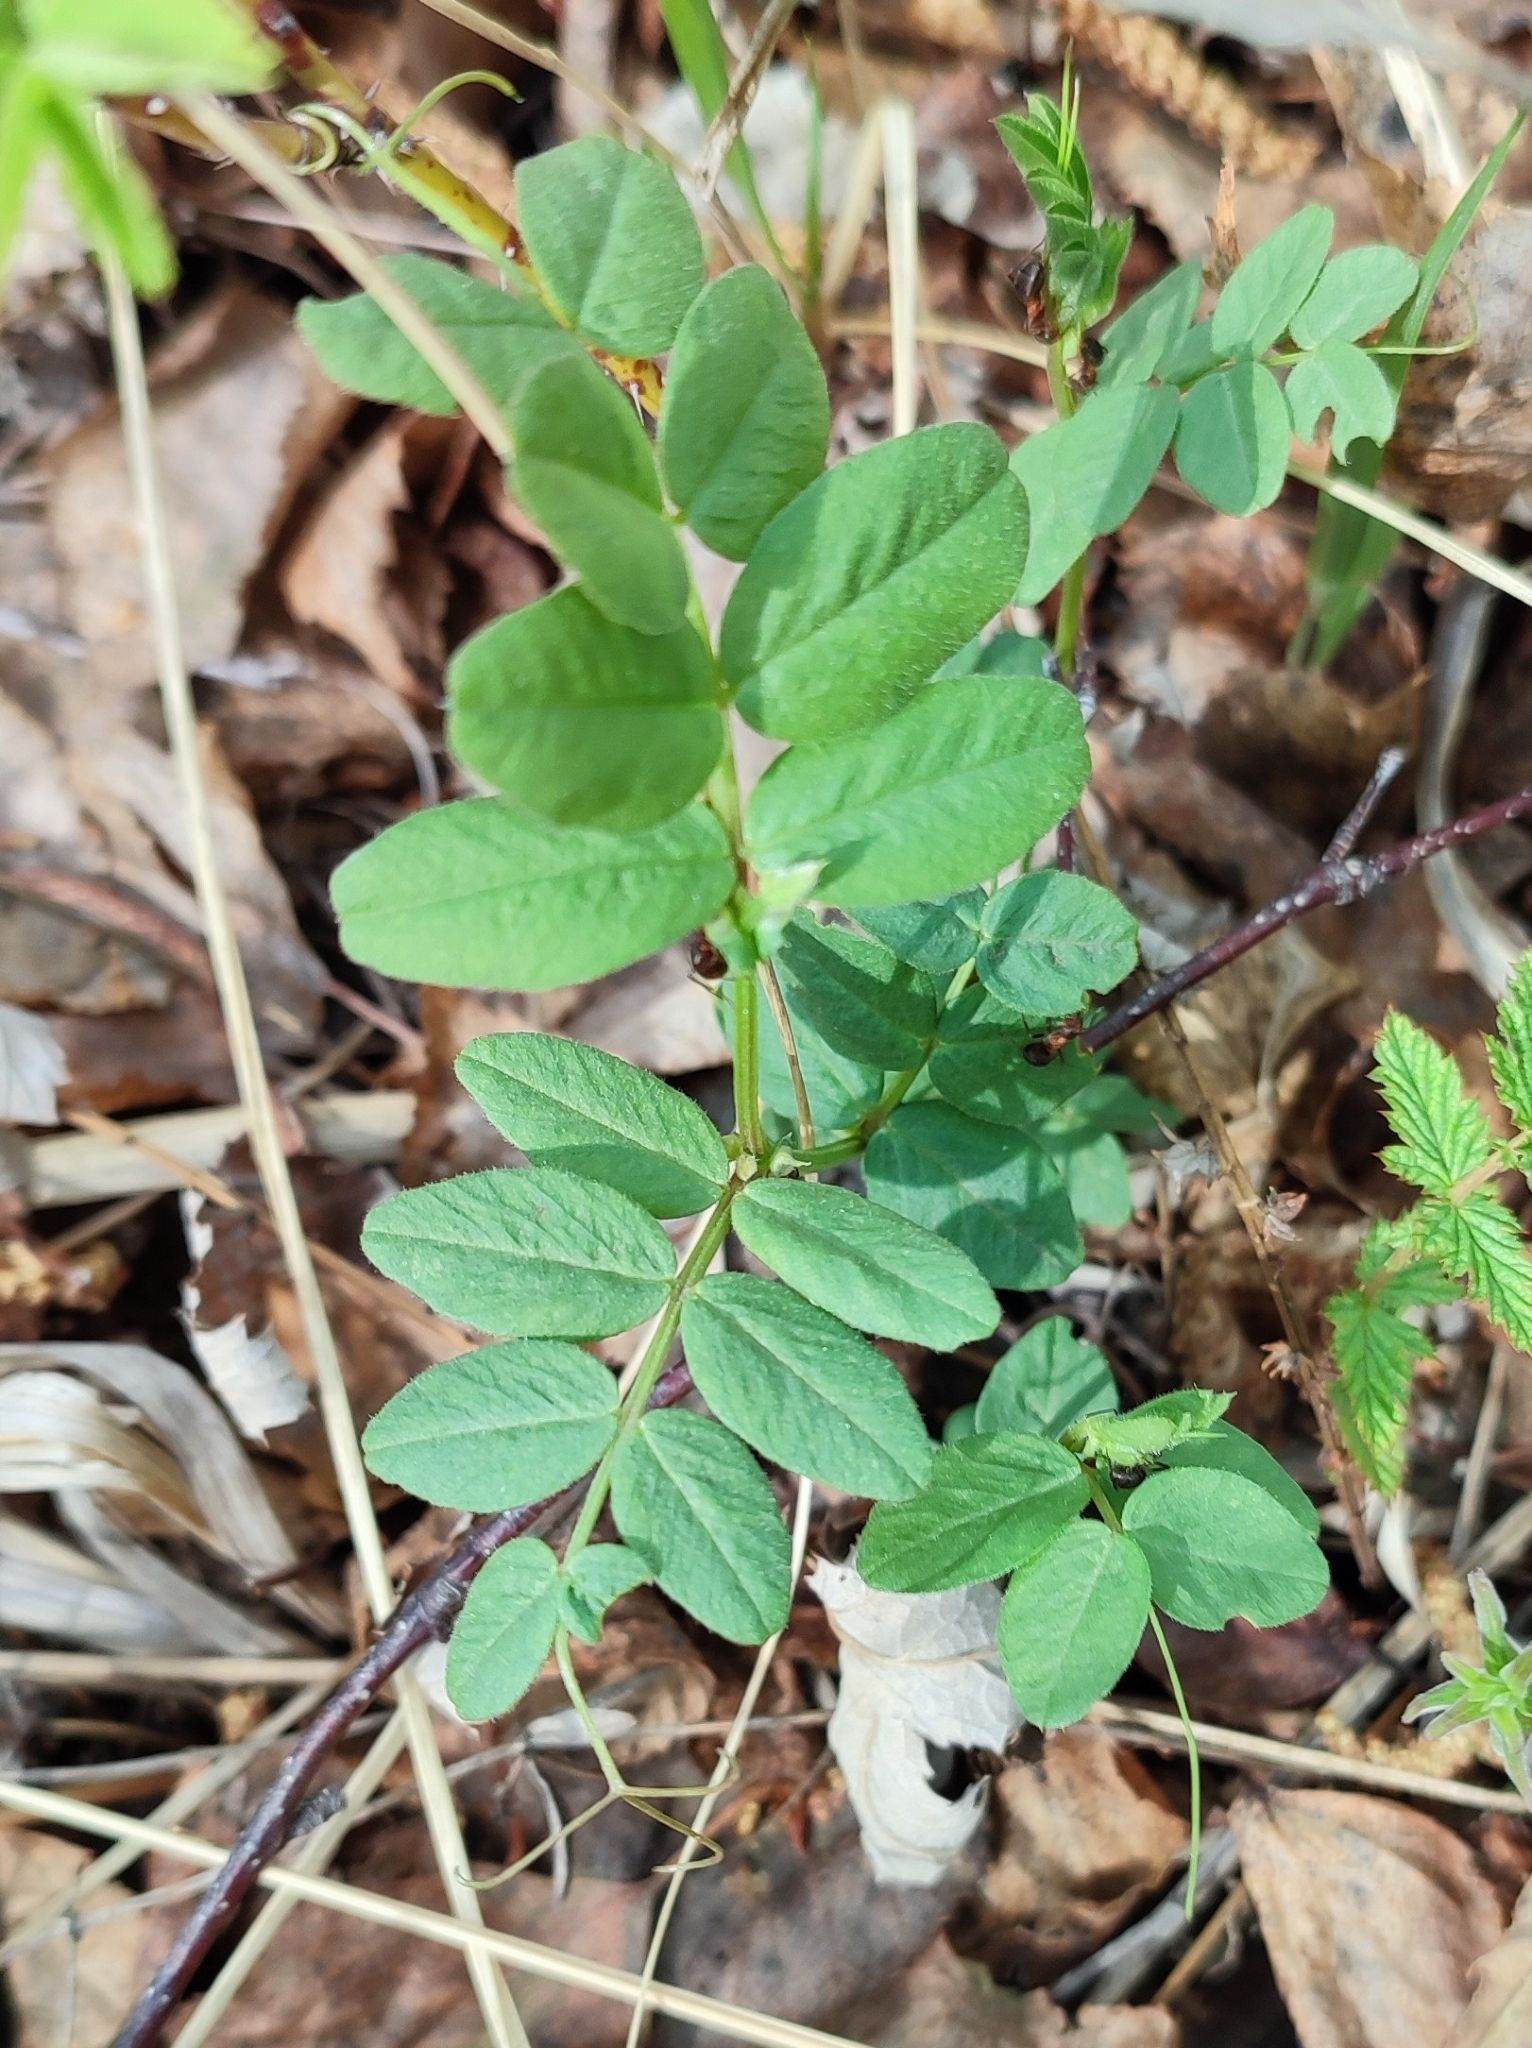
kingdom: Plantae
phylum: Tracheophyta
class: Magnoliopsida
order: Fabales
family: Fabaceae
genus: Vicia
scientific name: Vicia sepium
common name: Bush vetch
